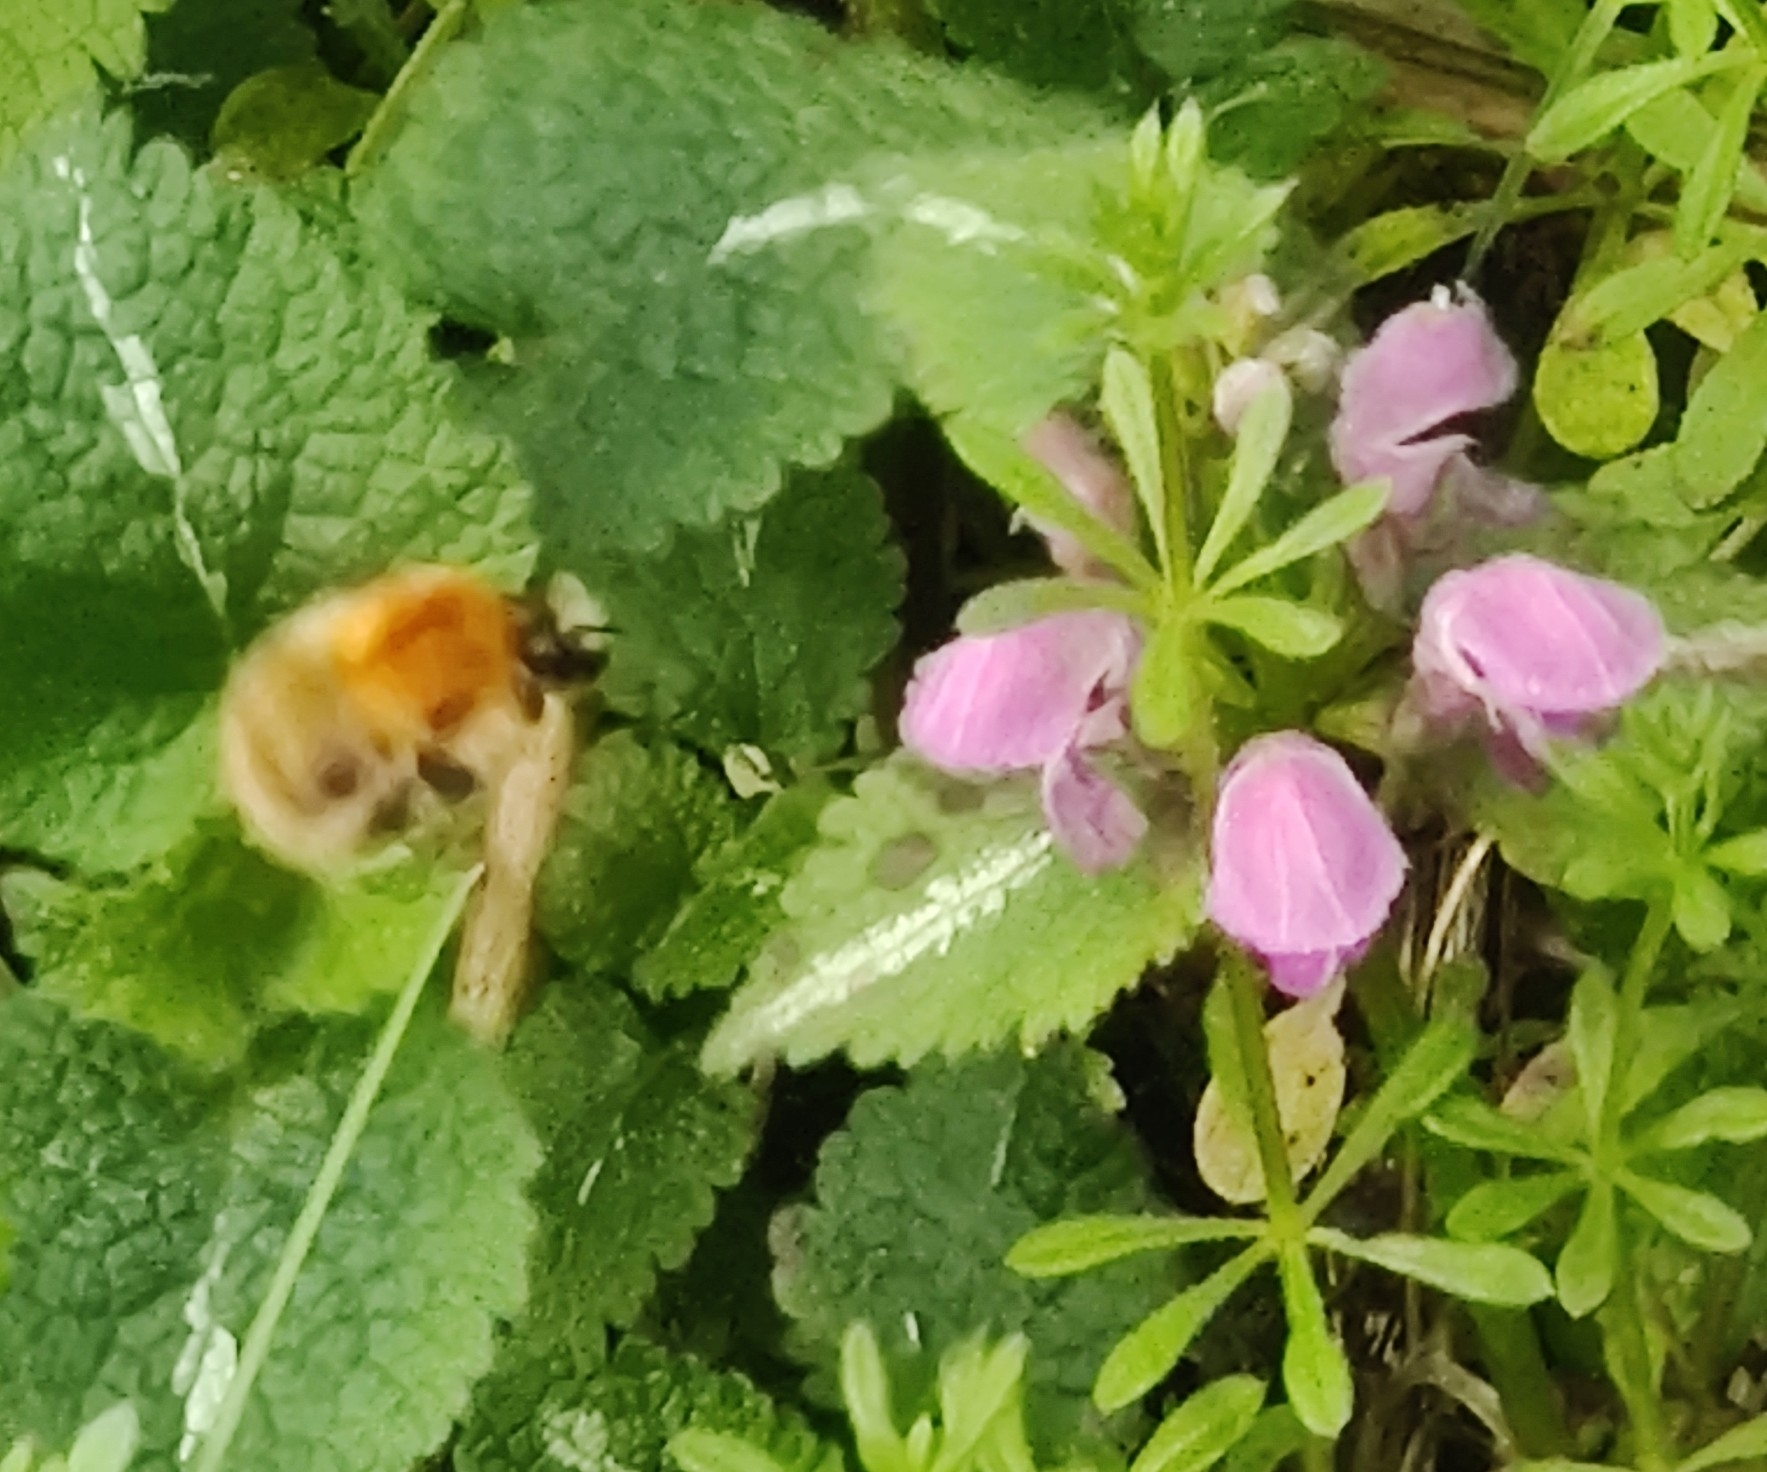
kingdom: Animalia
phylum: Arthropoda
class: Insecta
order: Hymenoptera
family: Apidae
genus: Bombus
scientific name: Bombus pascuorum
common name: Common carder bee
